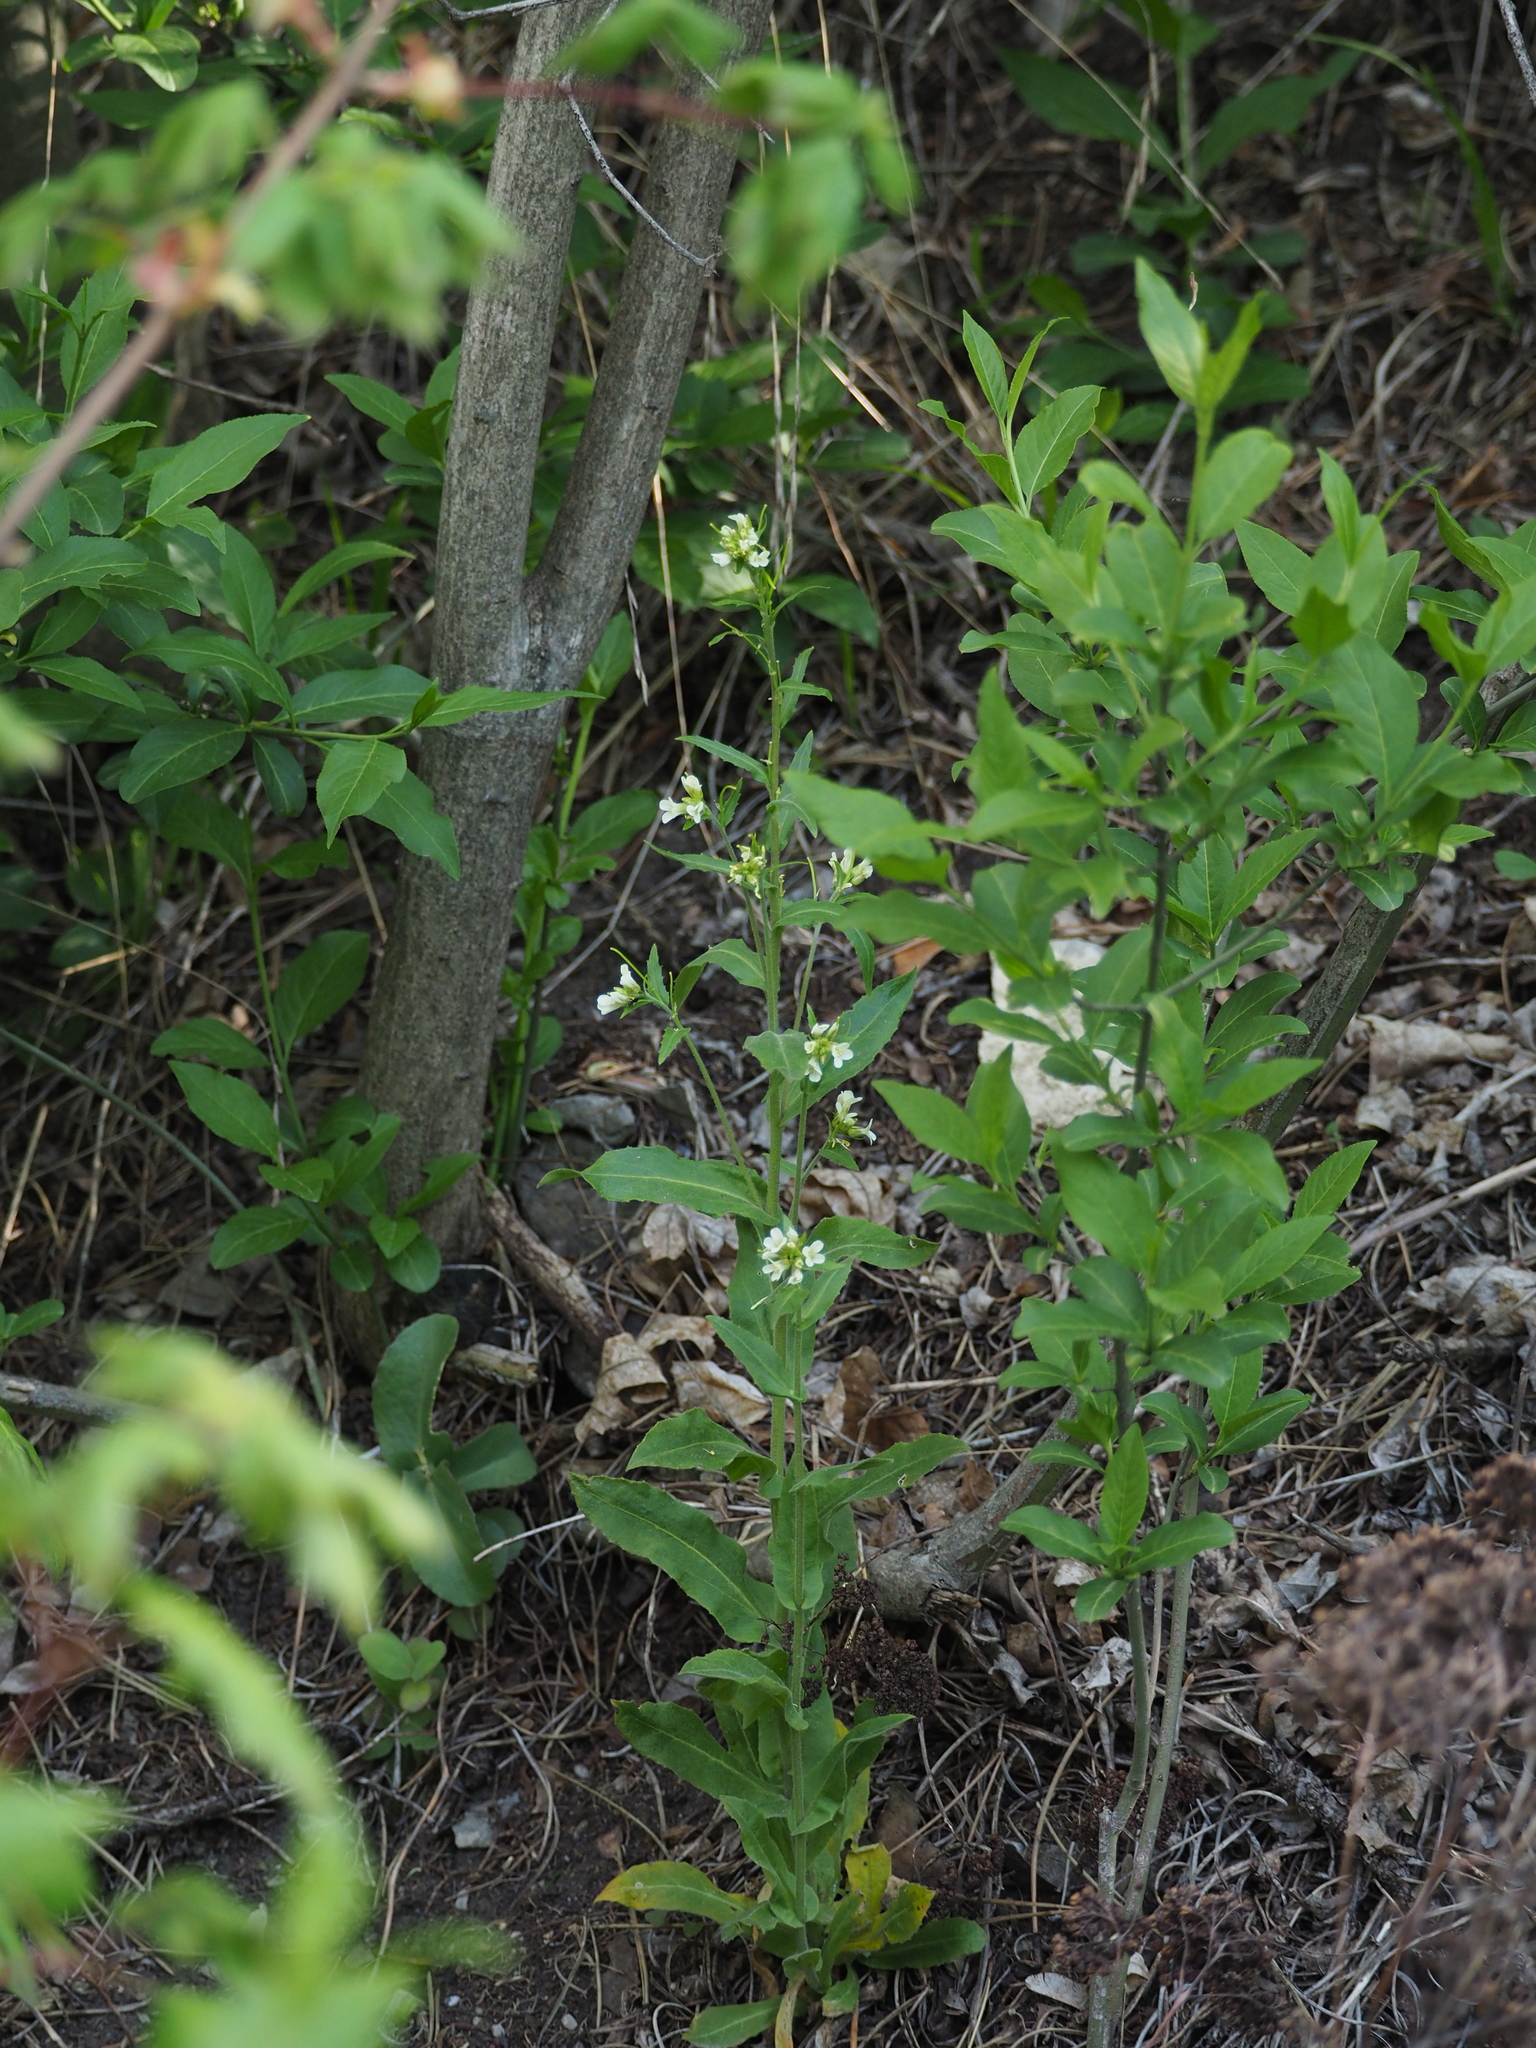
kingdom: Plantae
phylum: Tracheophyta
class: Magnoliopsida
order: Brassicales
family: Brassicaceae
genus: Pseudoturritis
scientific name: Pseudoturritis turrita
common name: Tower cress
